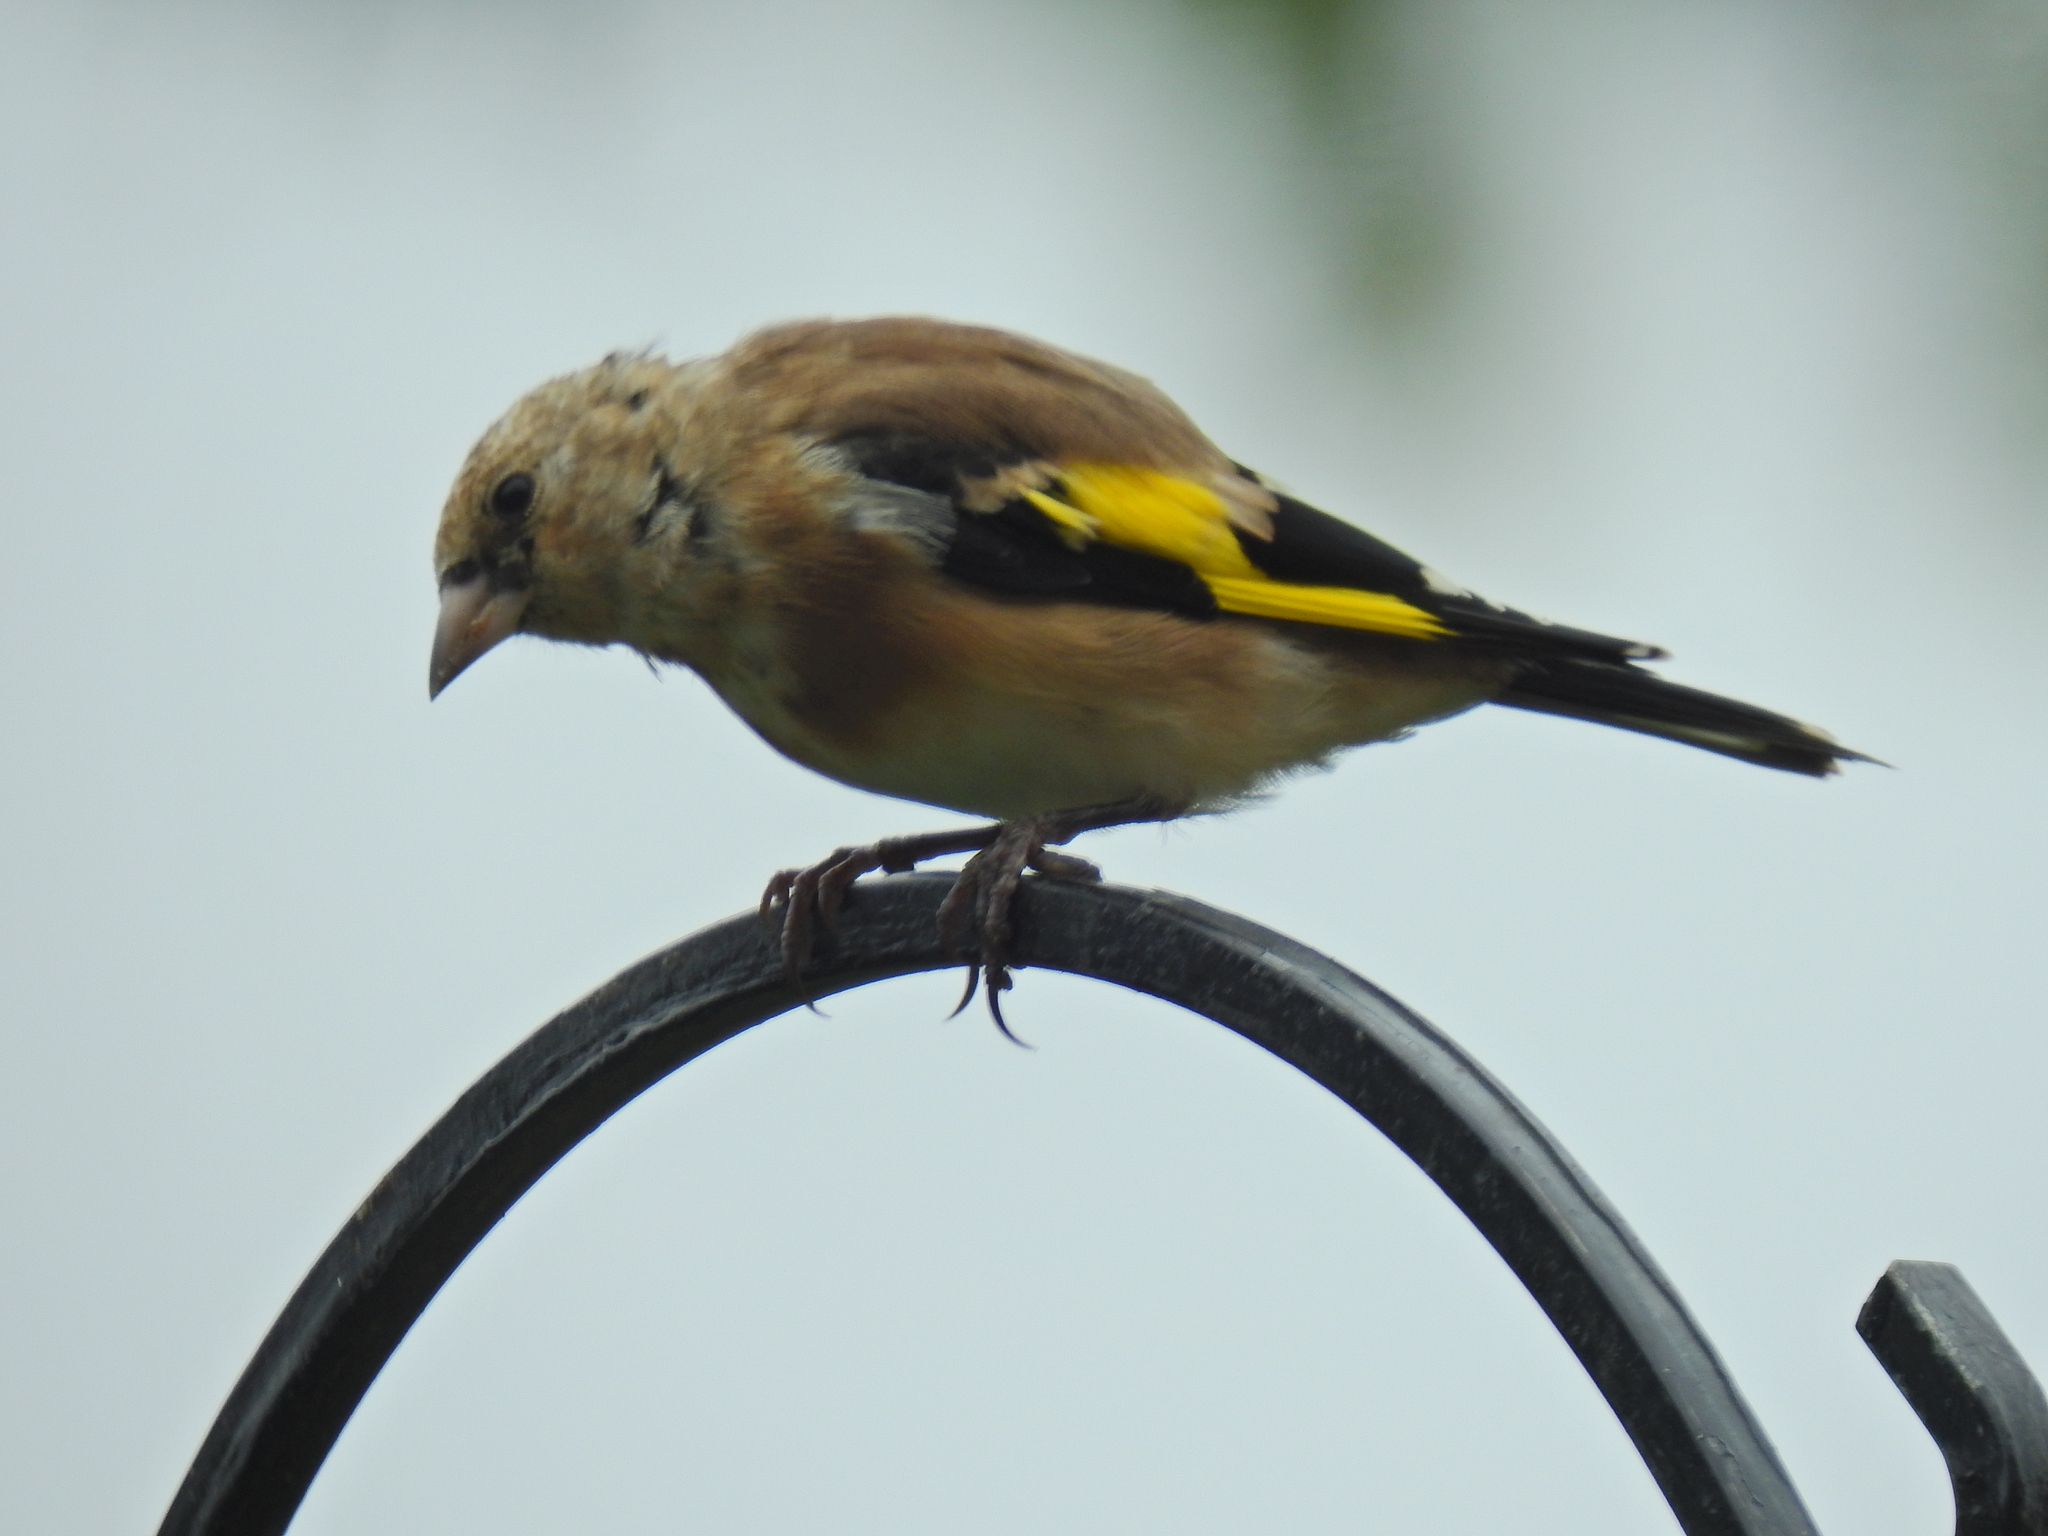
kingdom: Animalia
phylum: Chordata
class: Aves
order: Passeriformes
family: Fringillidae
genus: Carduelis
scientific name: Carduelis carduelis
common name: European goldfinch
